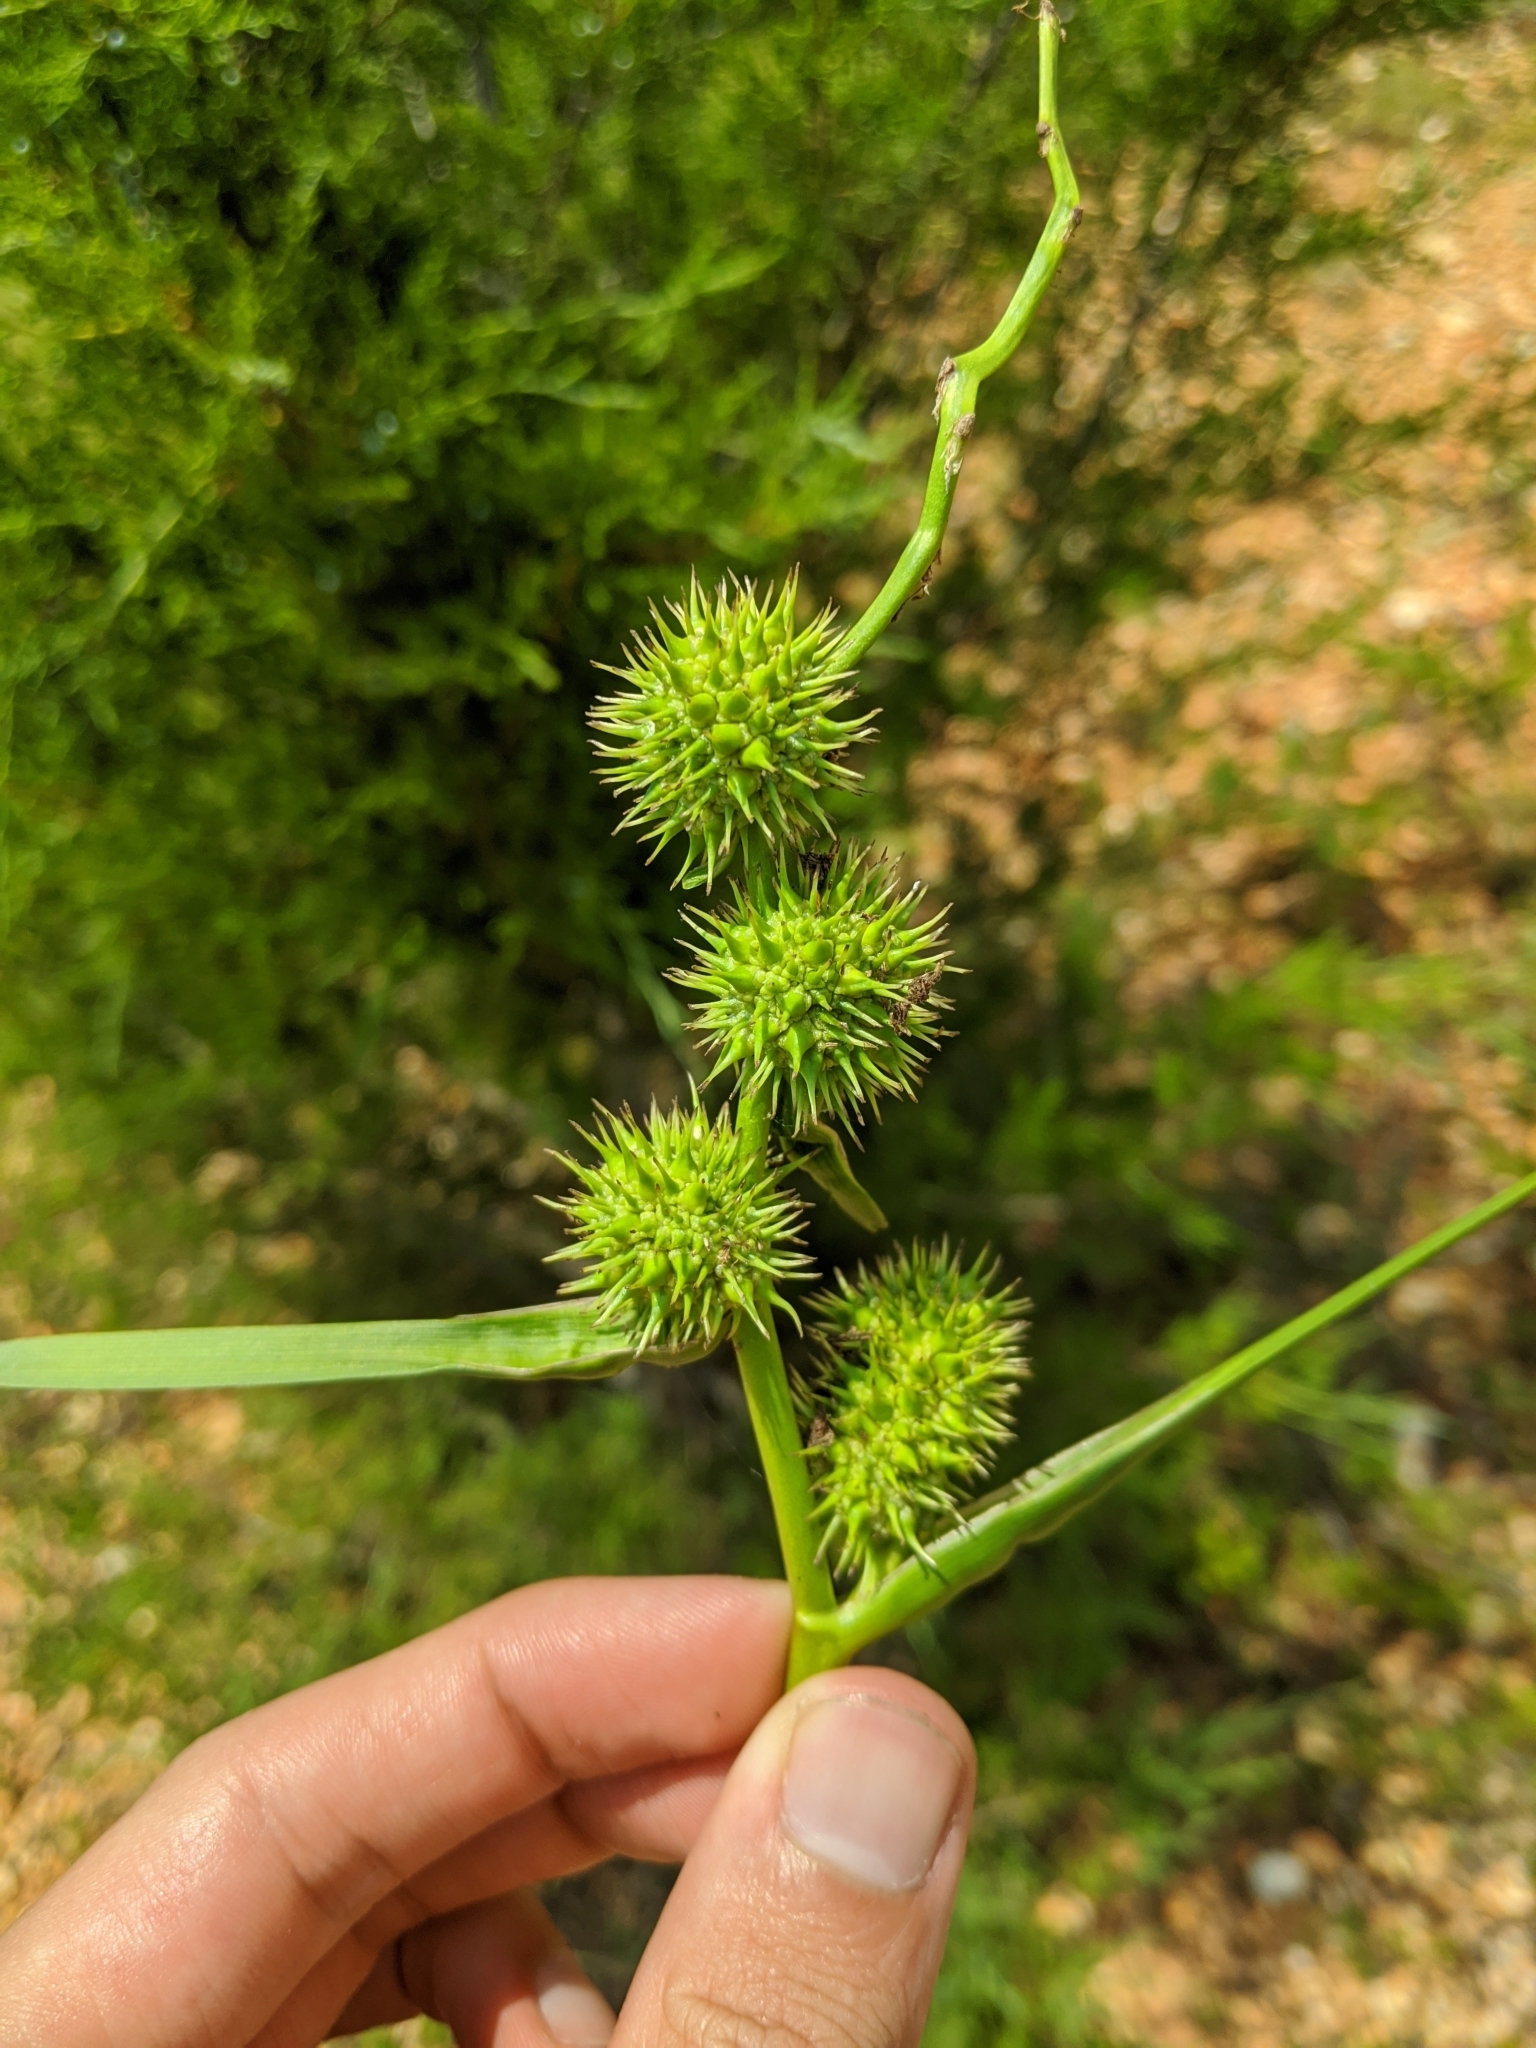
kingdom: Plantae
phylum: Tracheophyta
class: Liliopsida
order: Poales
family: Typhaceae
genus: Sparganium
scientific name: Sparganium eurycarpum
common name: Broad-fruited burreed
